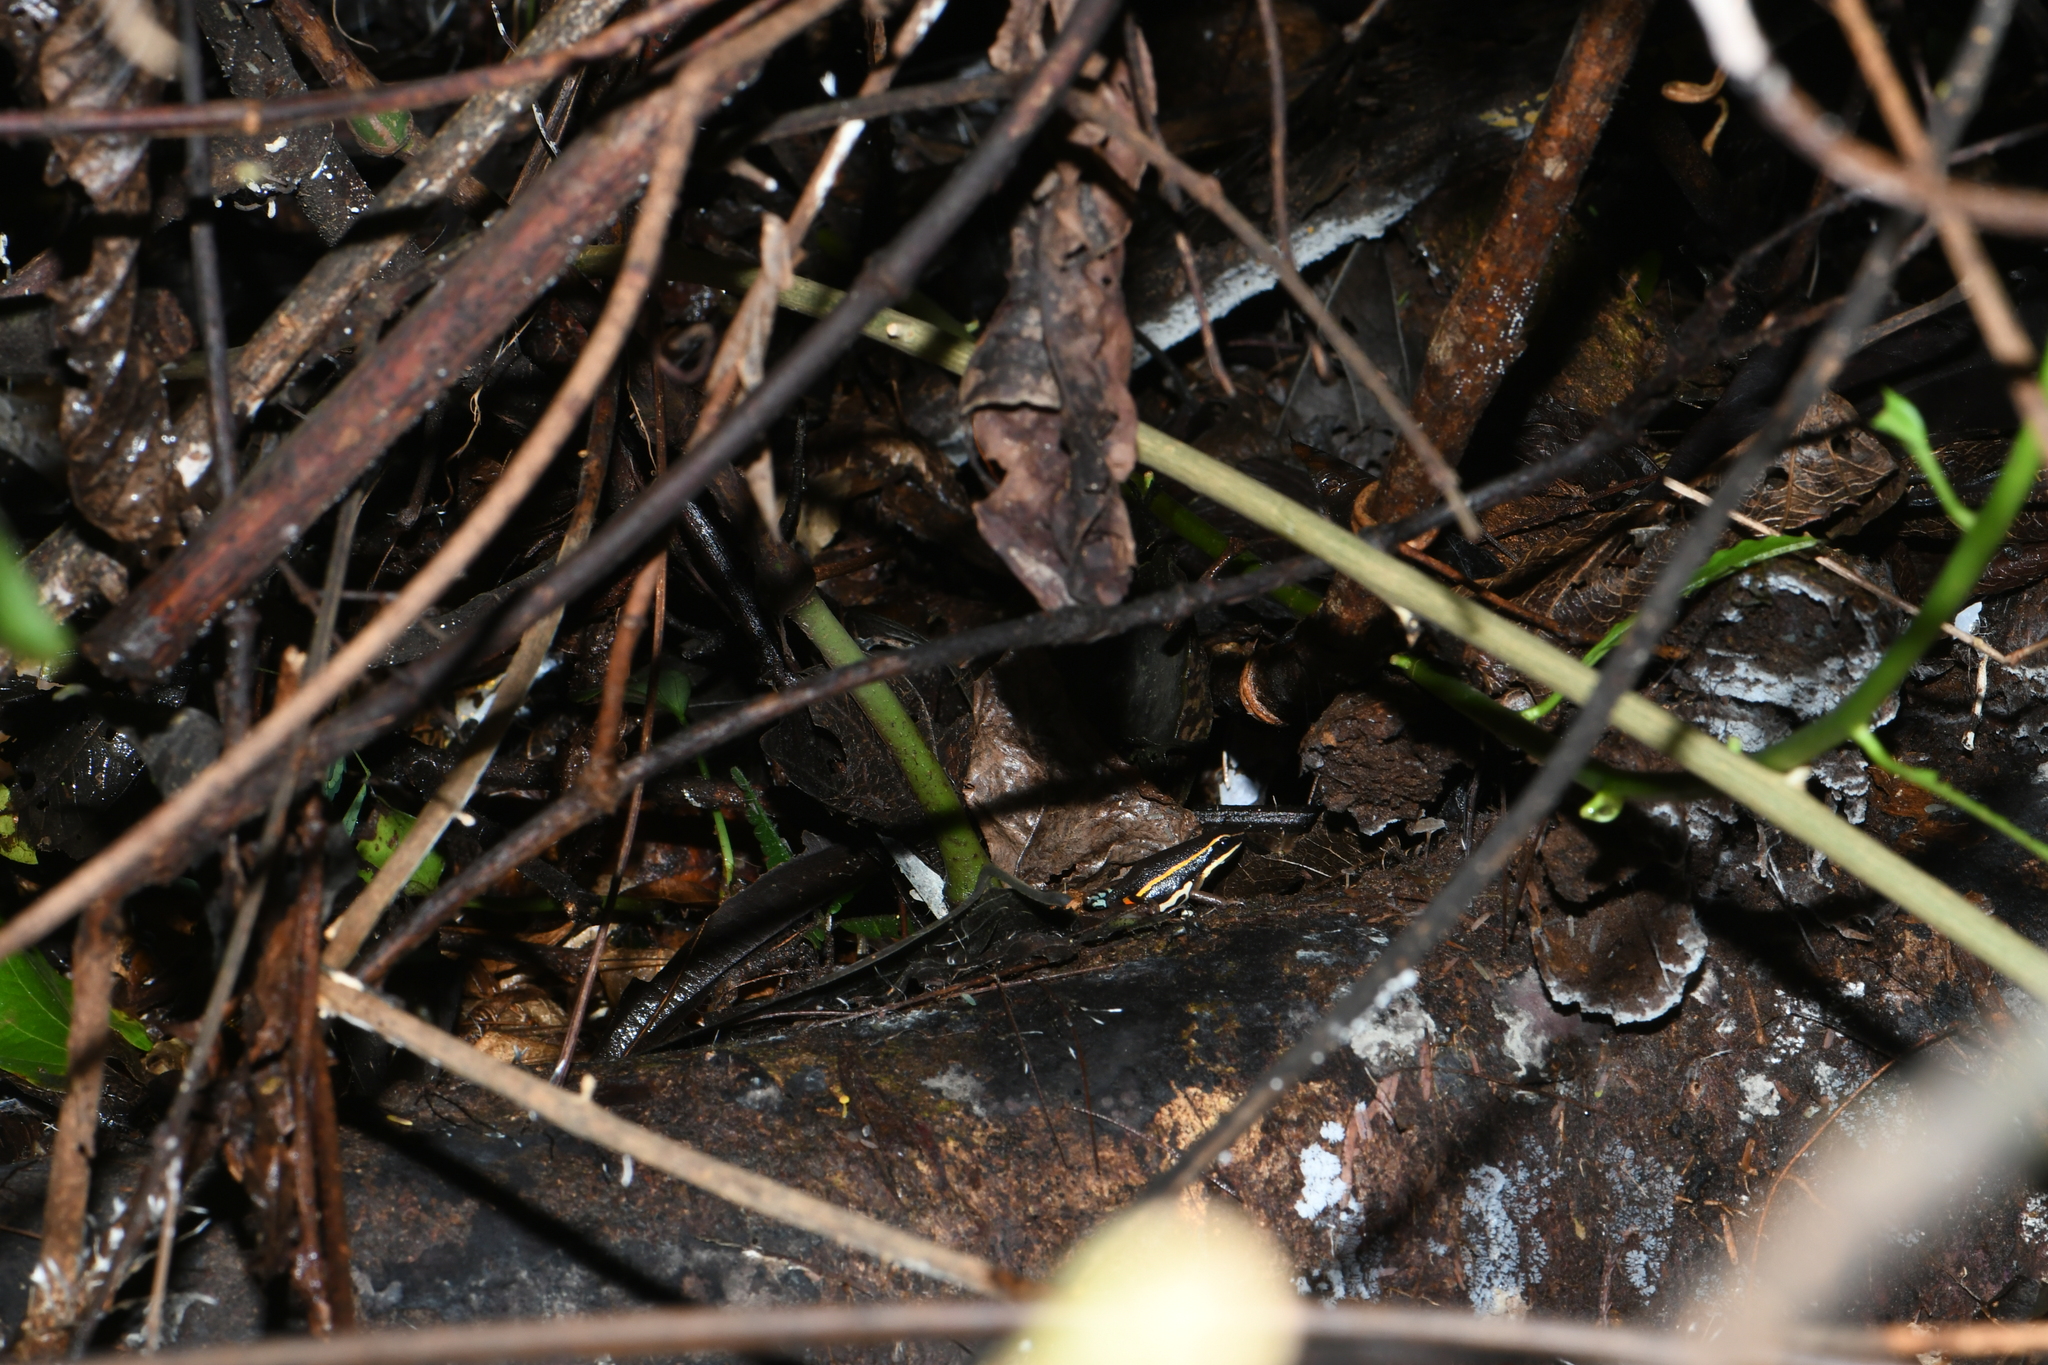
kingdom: Animalia
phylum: Chordata
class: Amphibia
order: Anura
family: Dendrobatidae
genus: Ameerega
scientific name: Ameerega picta
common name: Spot-legged poison frog
